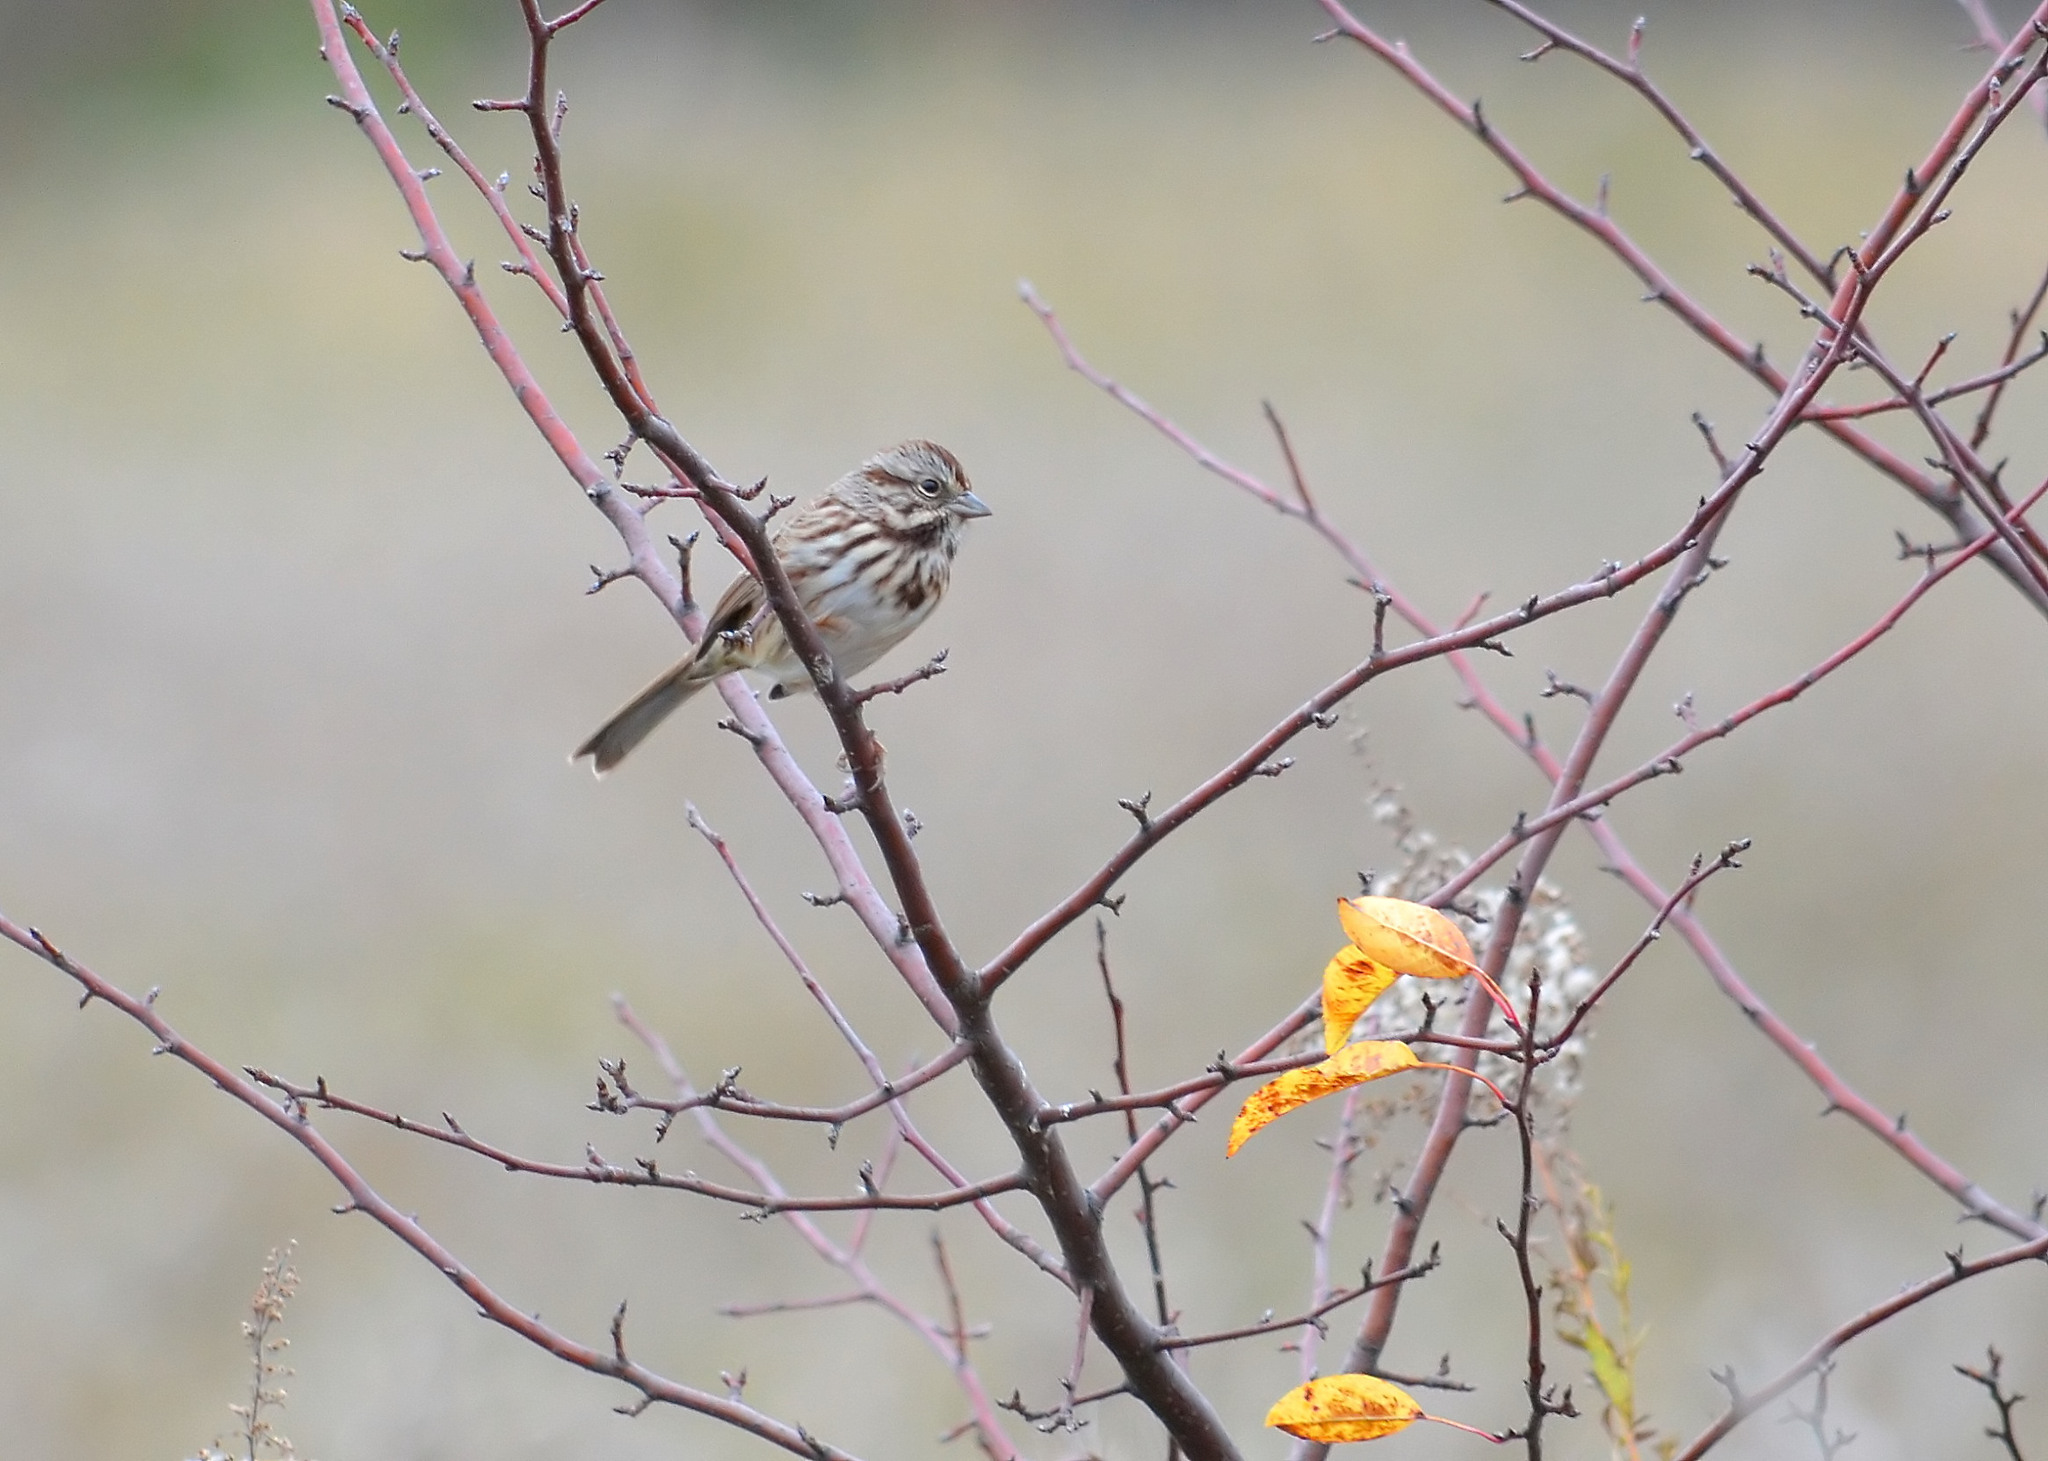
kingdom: Animalia
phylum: Chordata
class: Aves
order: Passeriformes
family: Passerellidae
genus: Melospiza
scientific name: Melospiza melodia
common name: Song sparrow
